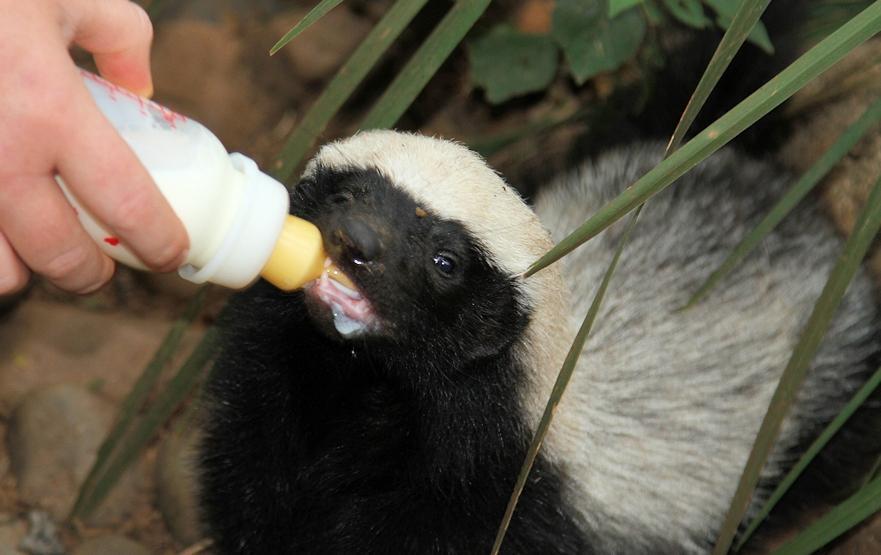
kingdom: Animalia
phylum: Chordata
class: Mammalia
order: Carnivora
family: Mustelidae
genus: Mellivora
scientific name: Mellivora capensis
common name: Honey badger
